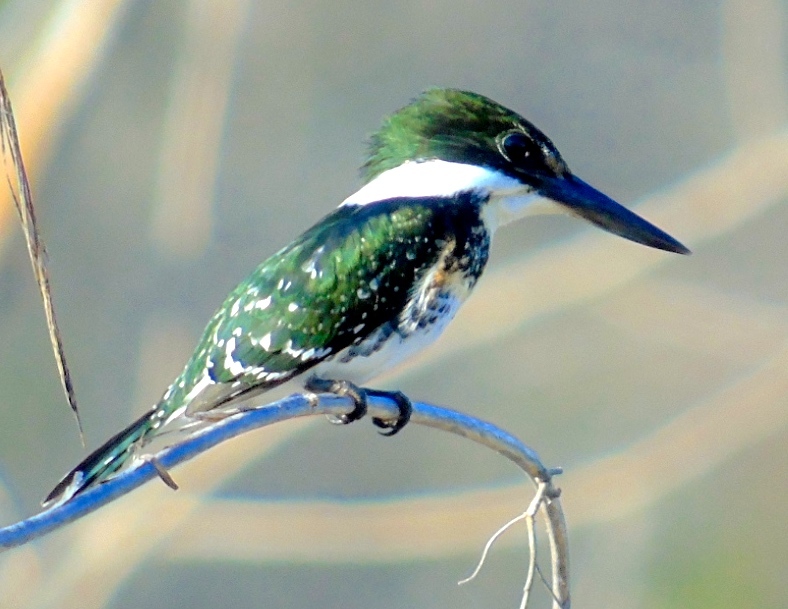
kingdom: Animalia
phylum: Chordata
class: Aves
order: Coraciiformes
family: Alcedinidae
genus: Chloroceryle
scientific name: Chloroceryle americana
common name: Green kingfisher
